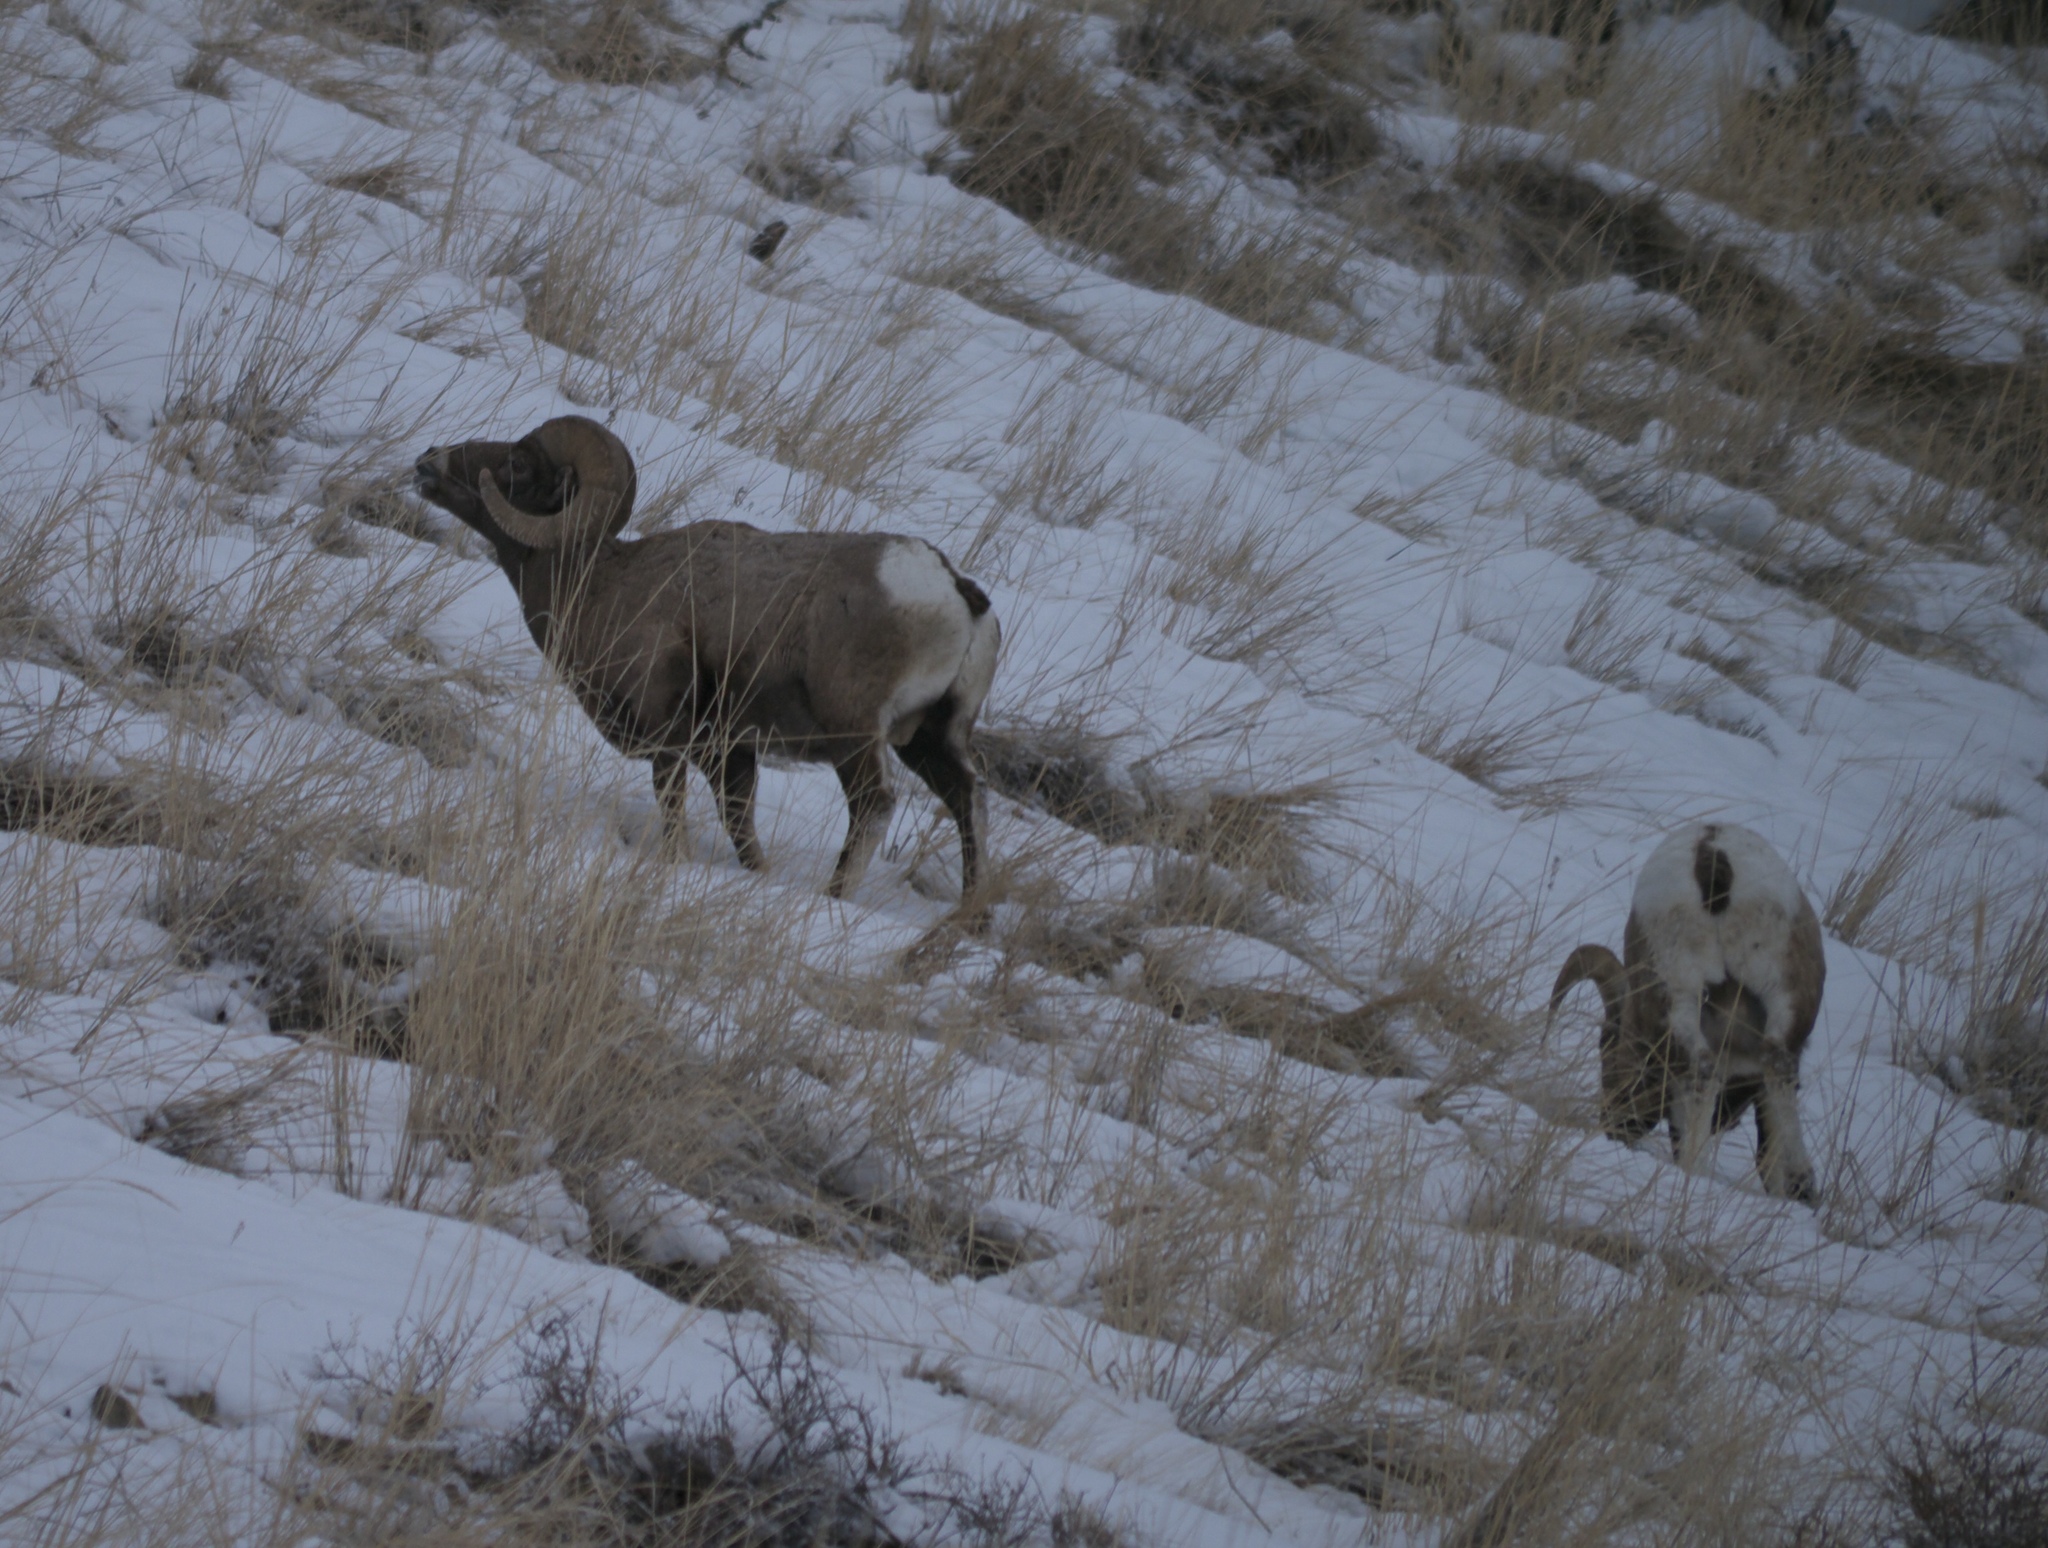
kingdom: Animalia
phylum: Chordata
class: Mammalia
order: Artiodactyla
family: Bovidae
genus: Ovis
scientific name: Ovis canadensis
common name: Bighorn sheep
